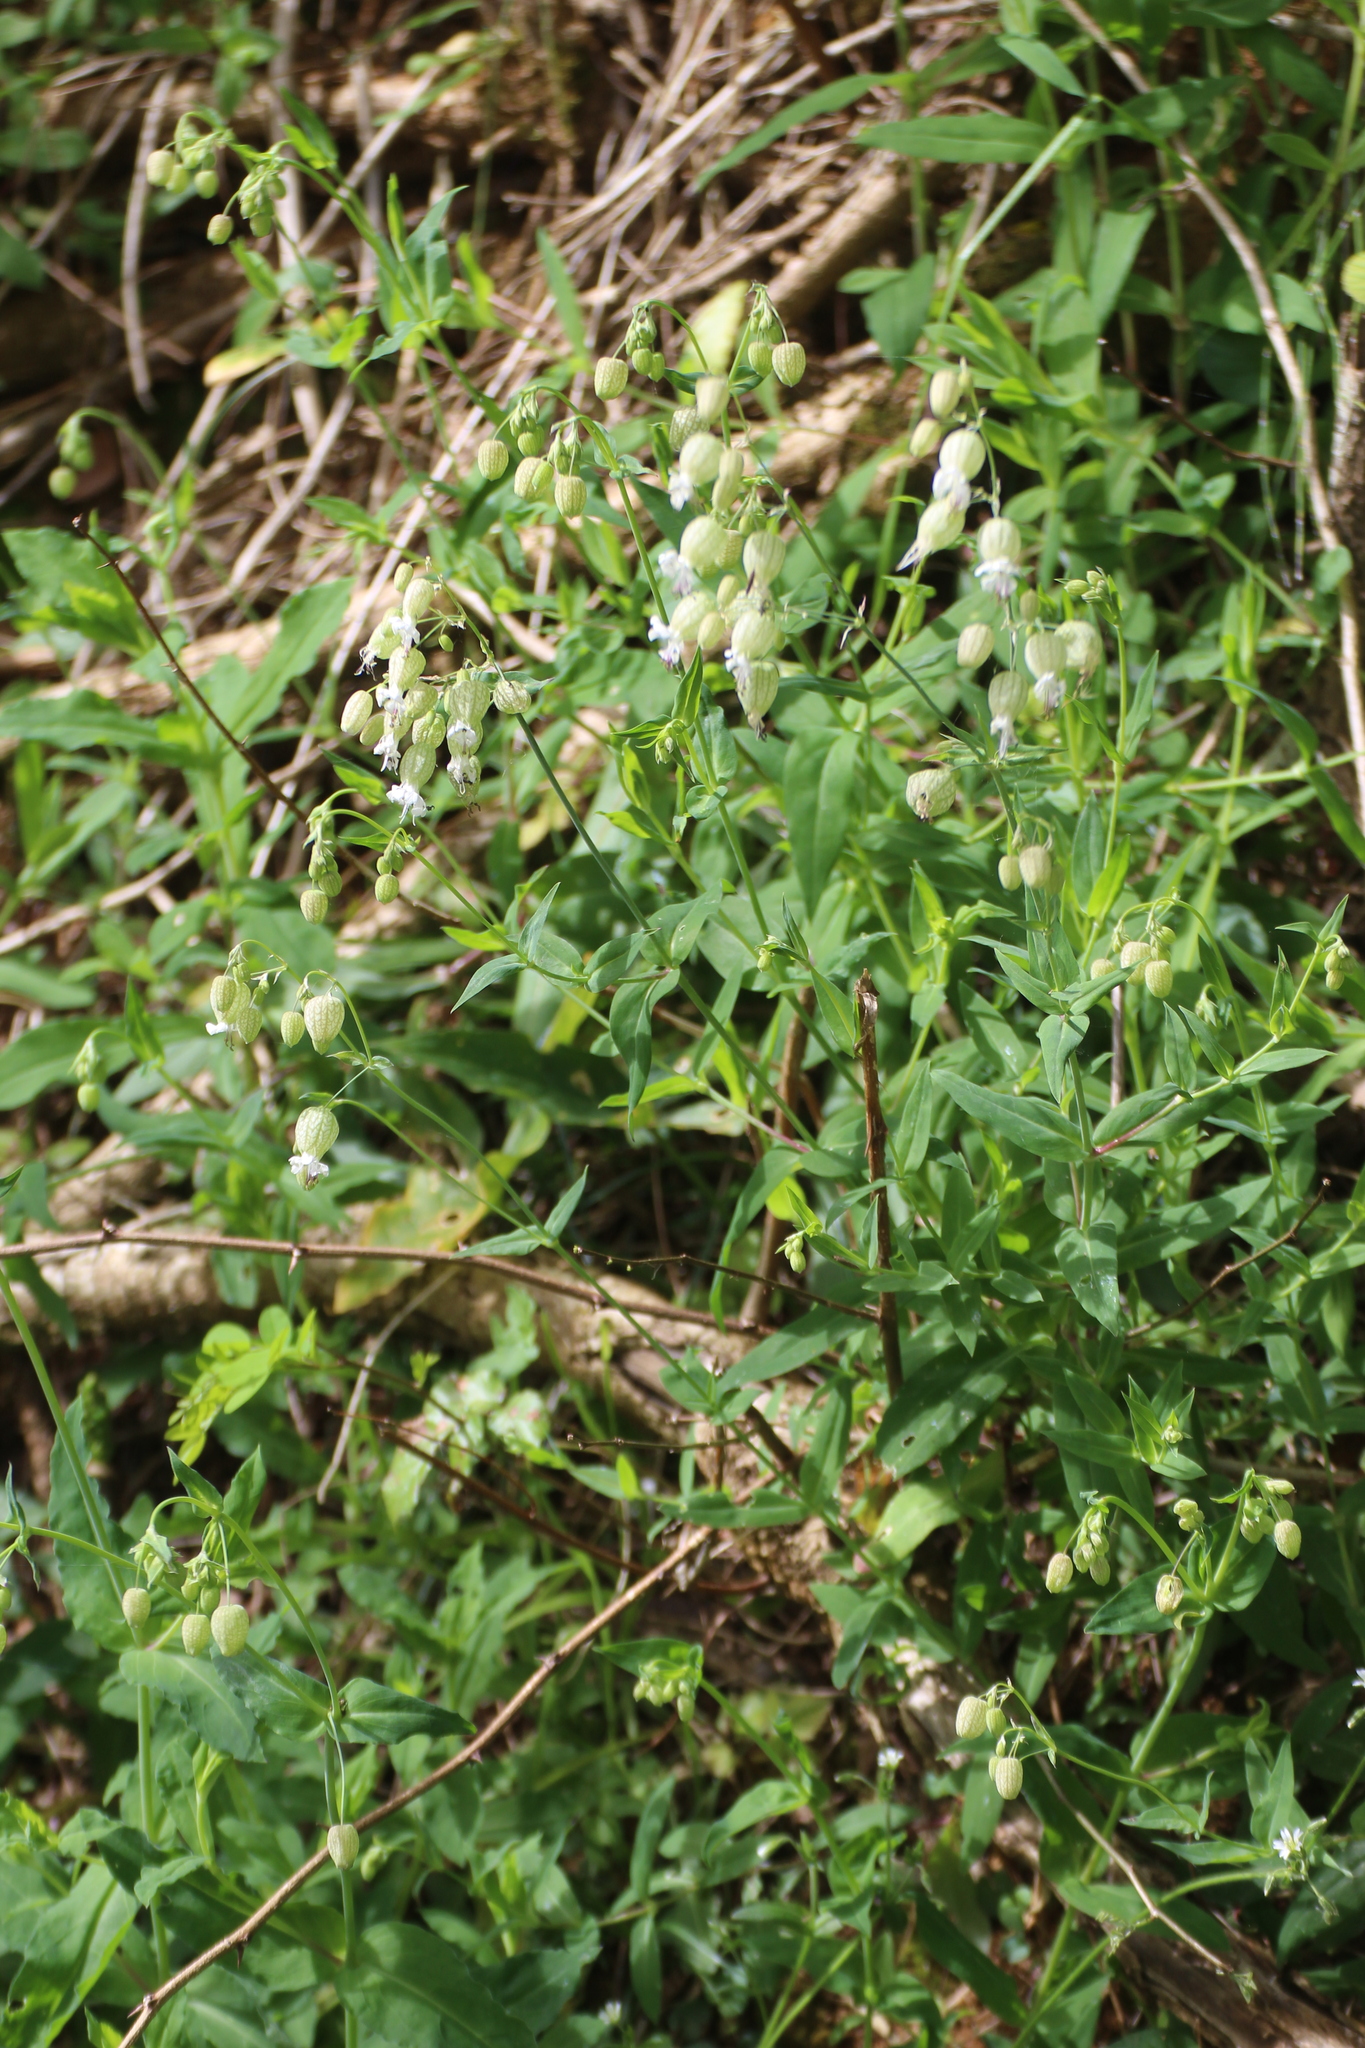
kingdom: Plantae
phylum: Tracheophyta
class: Magnoliopsida
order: Caryophyllales
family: Caryophyllaceae
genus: Silene
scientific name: Silene vulgaris
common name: Bladder campion
